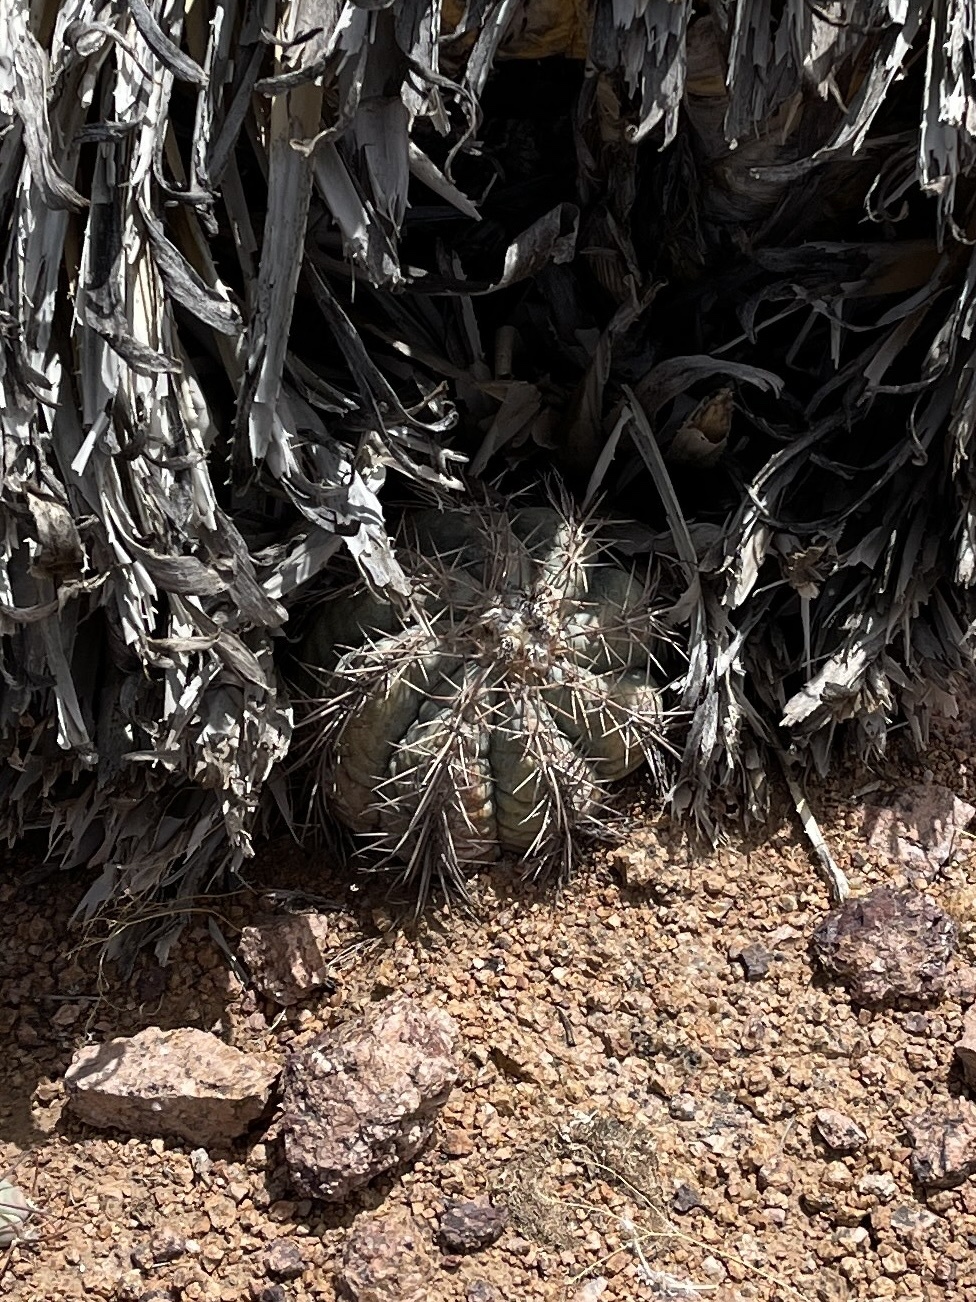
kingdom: Plantae
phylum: Tracheophyta
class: Magnoliopsida
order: Caryophyllales
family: Cactaceae
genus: Echinocactus
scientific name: Echinocactus horizonthalonius
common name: Devilshead
